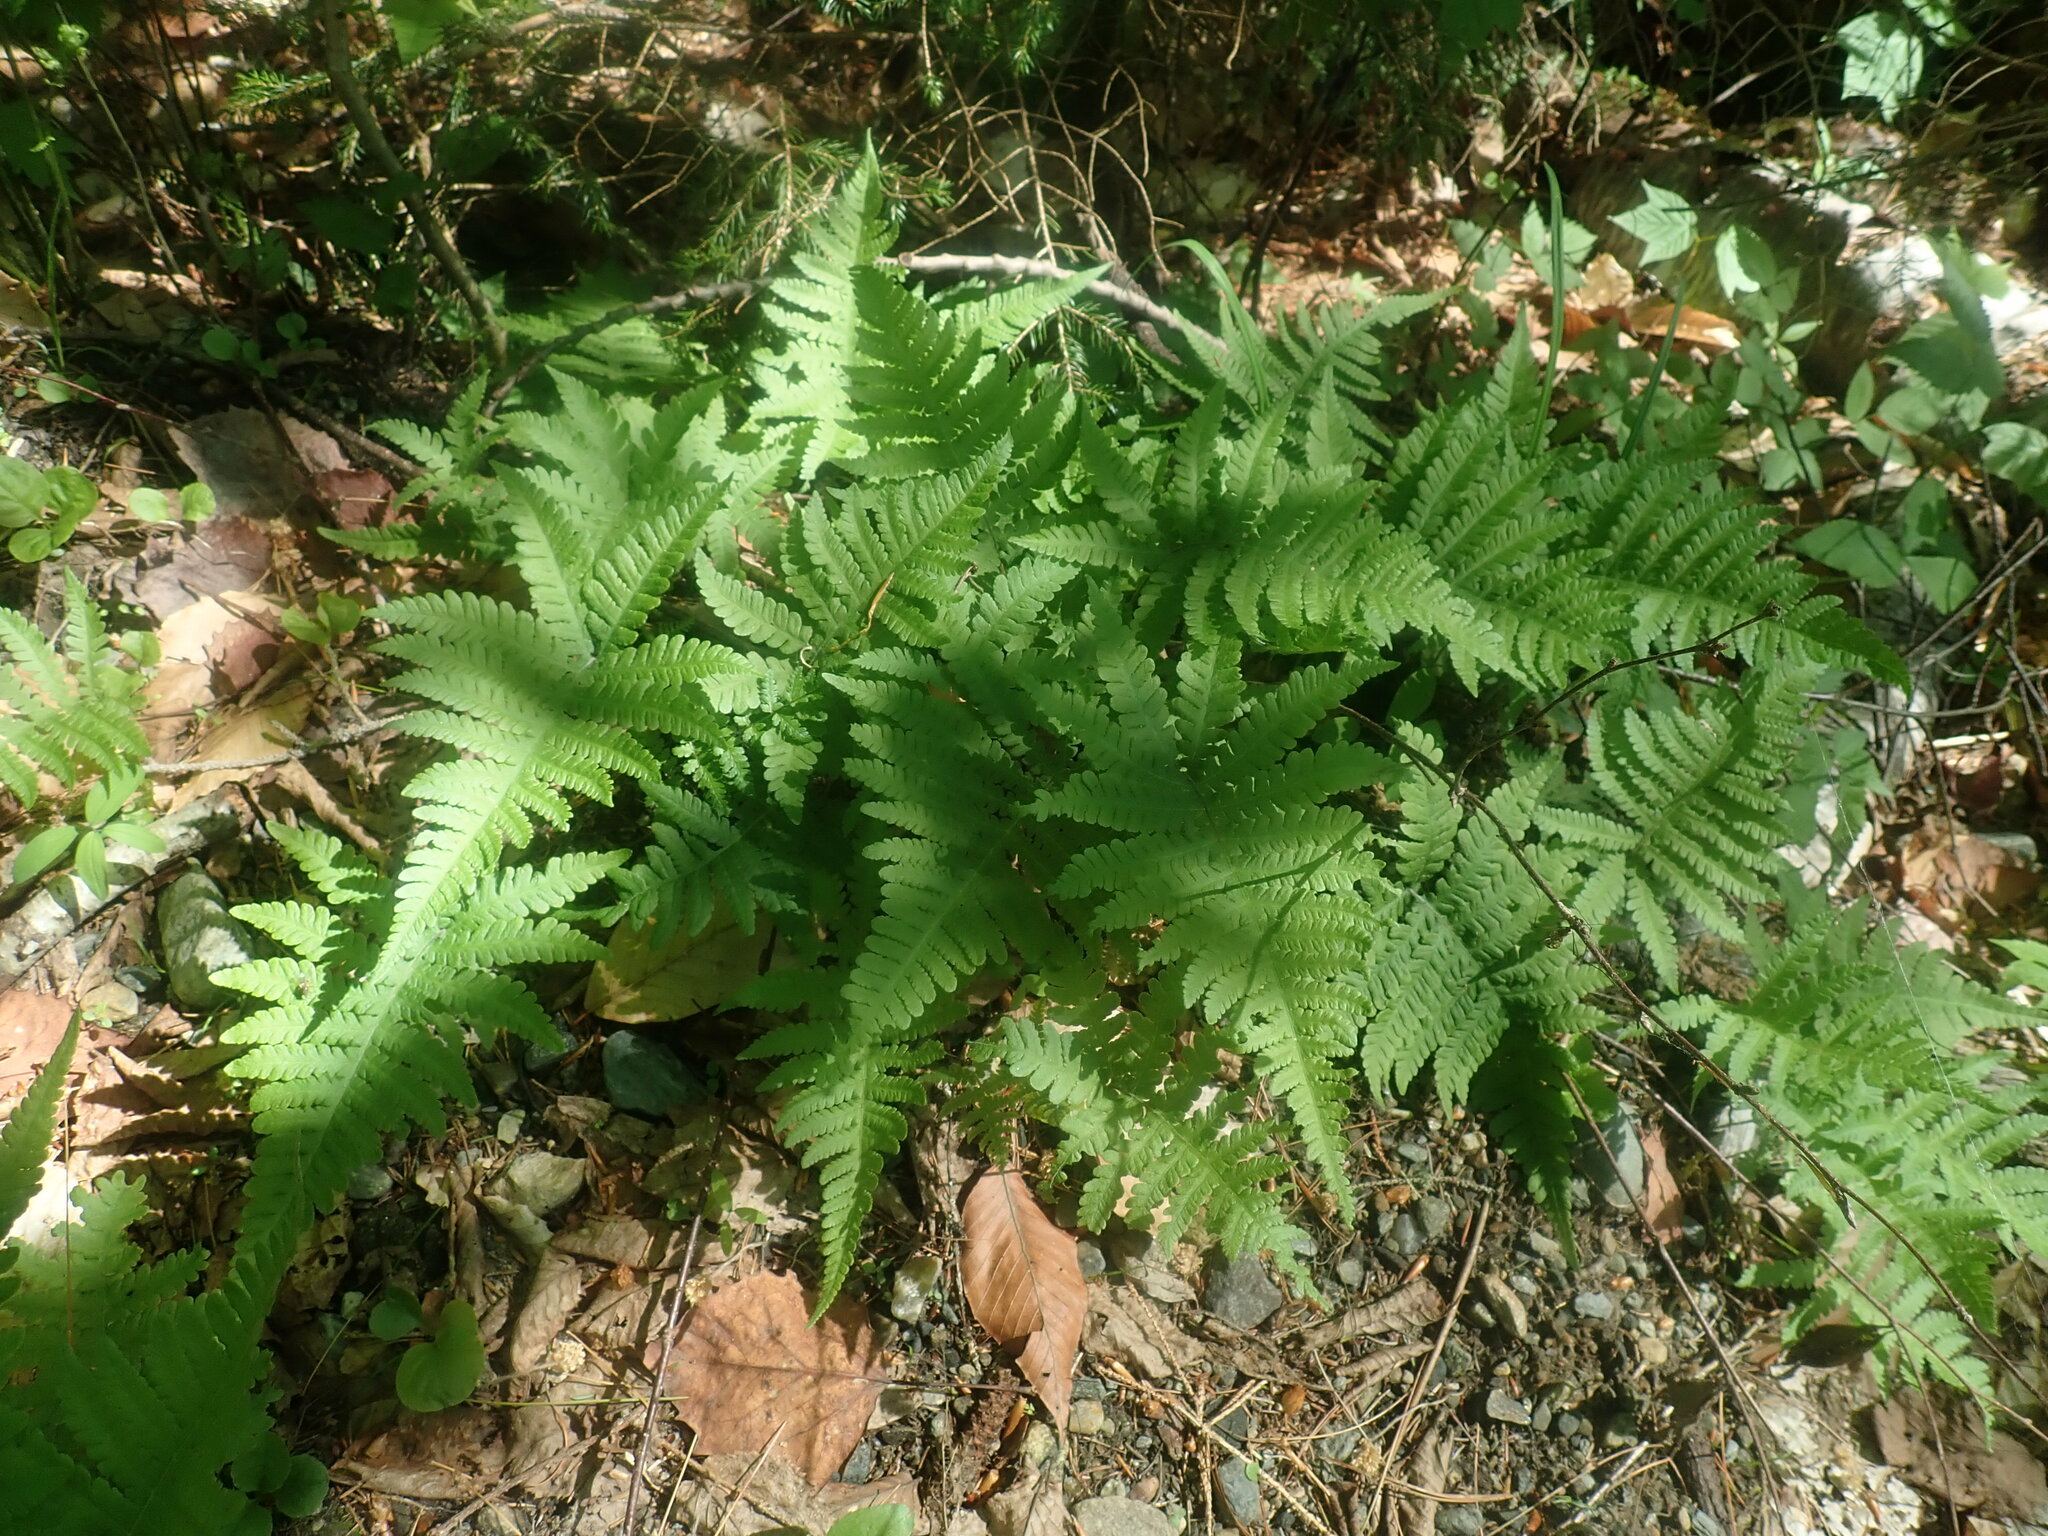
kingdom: Plantae
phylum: Tracheophyta
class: Polypodiopsida
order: Polypodiales
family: Thelypteridaceae
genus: Phegopteris
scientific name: Phegopteris connectilis
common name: Beech fern
